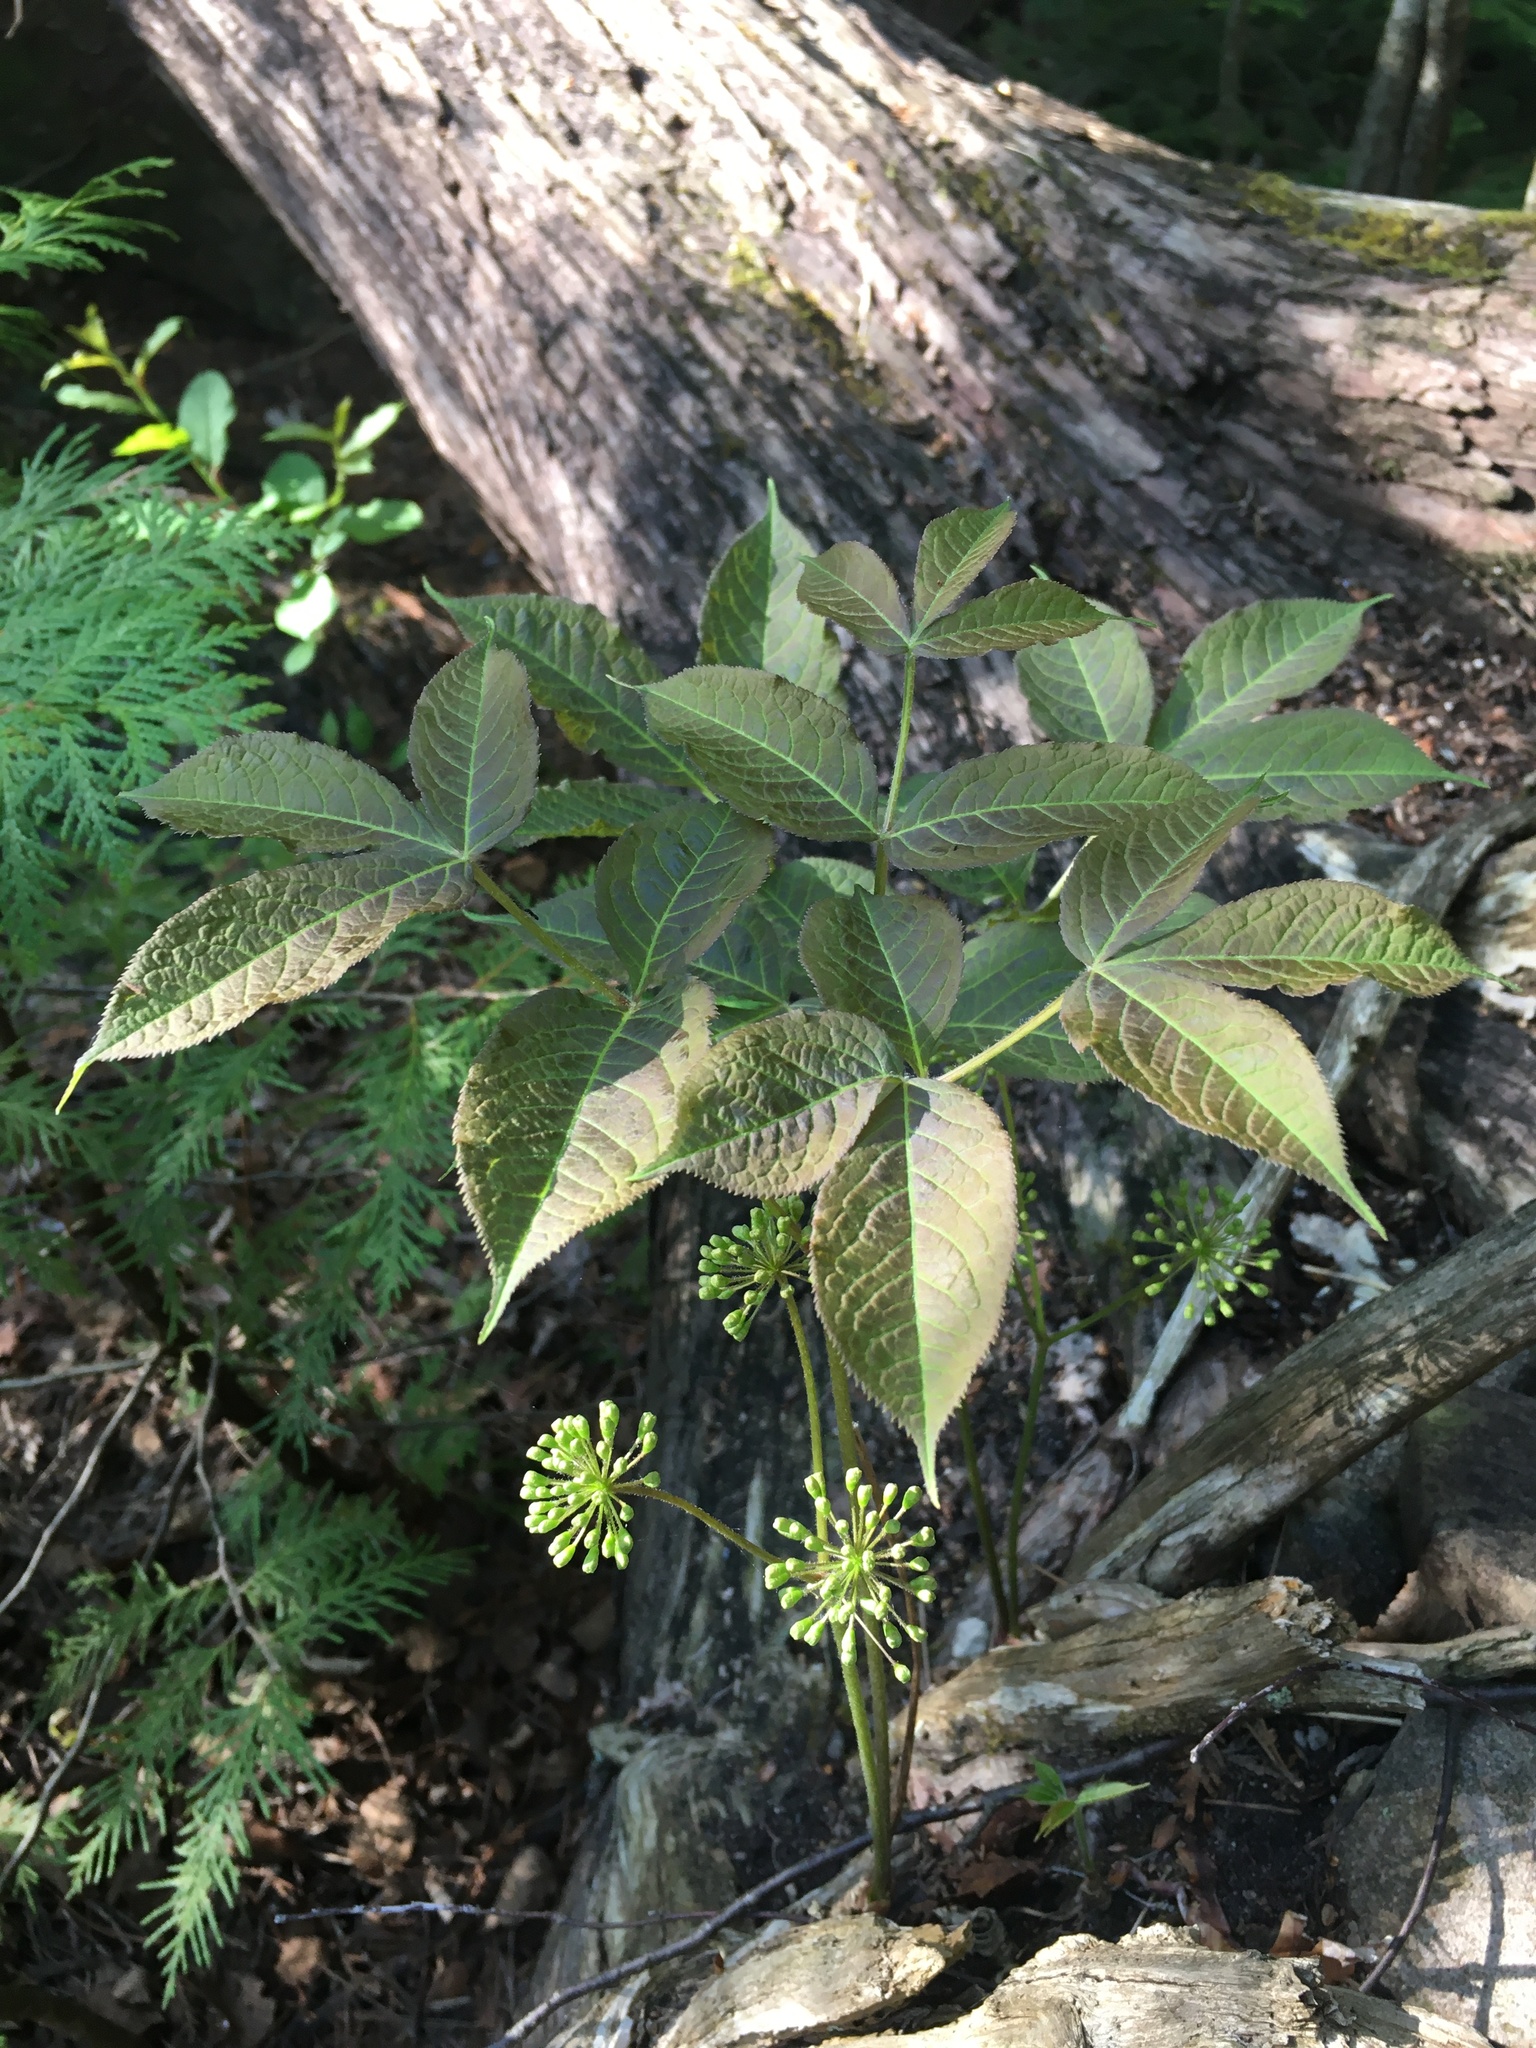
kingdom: Plantae
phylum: Tracheophyta
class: Magnoliopsida
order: Apiales
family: Araliaceae
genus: Aralia
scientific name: Aralia nudicaulis
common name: Wild sarsaparilla
